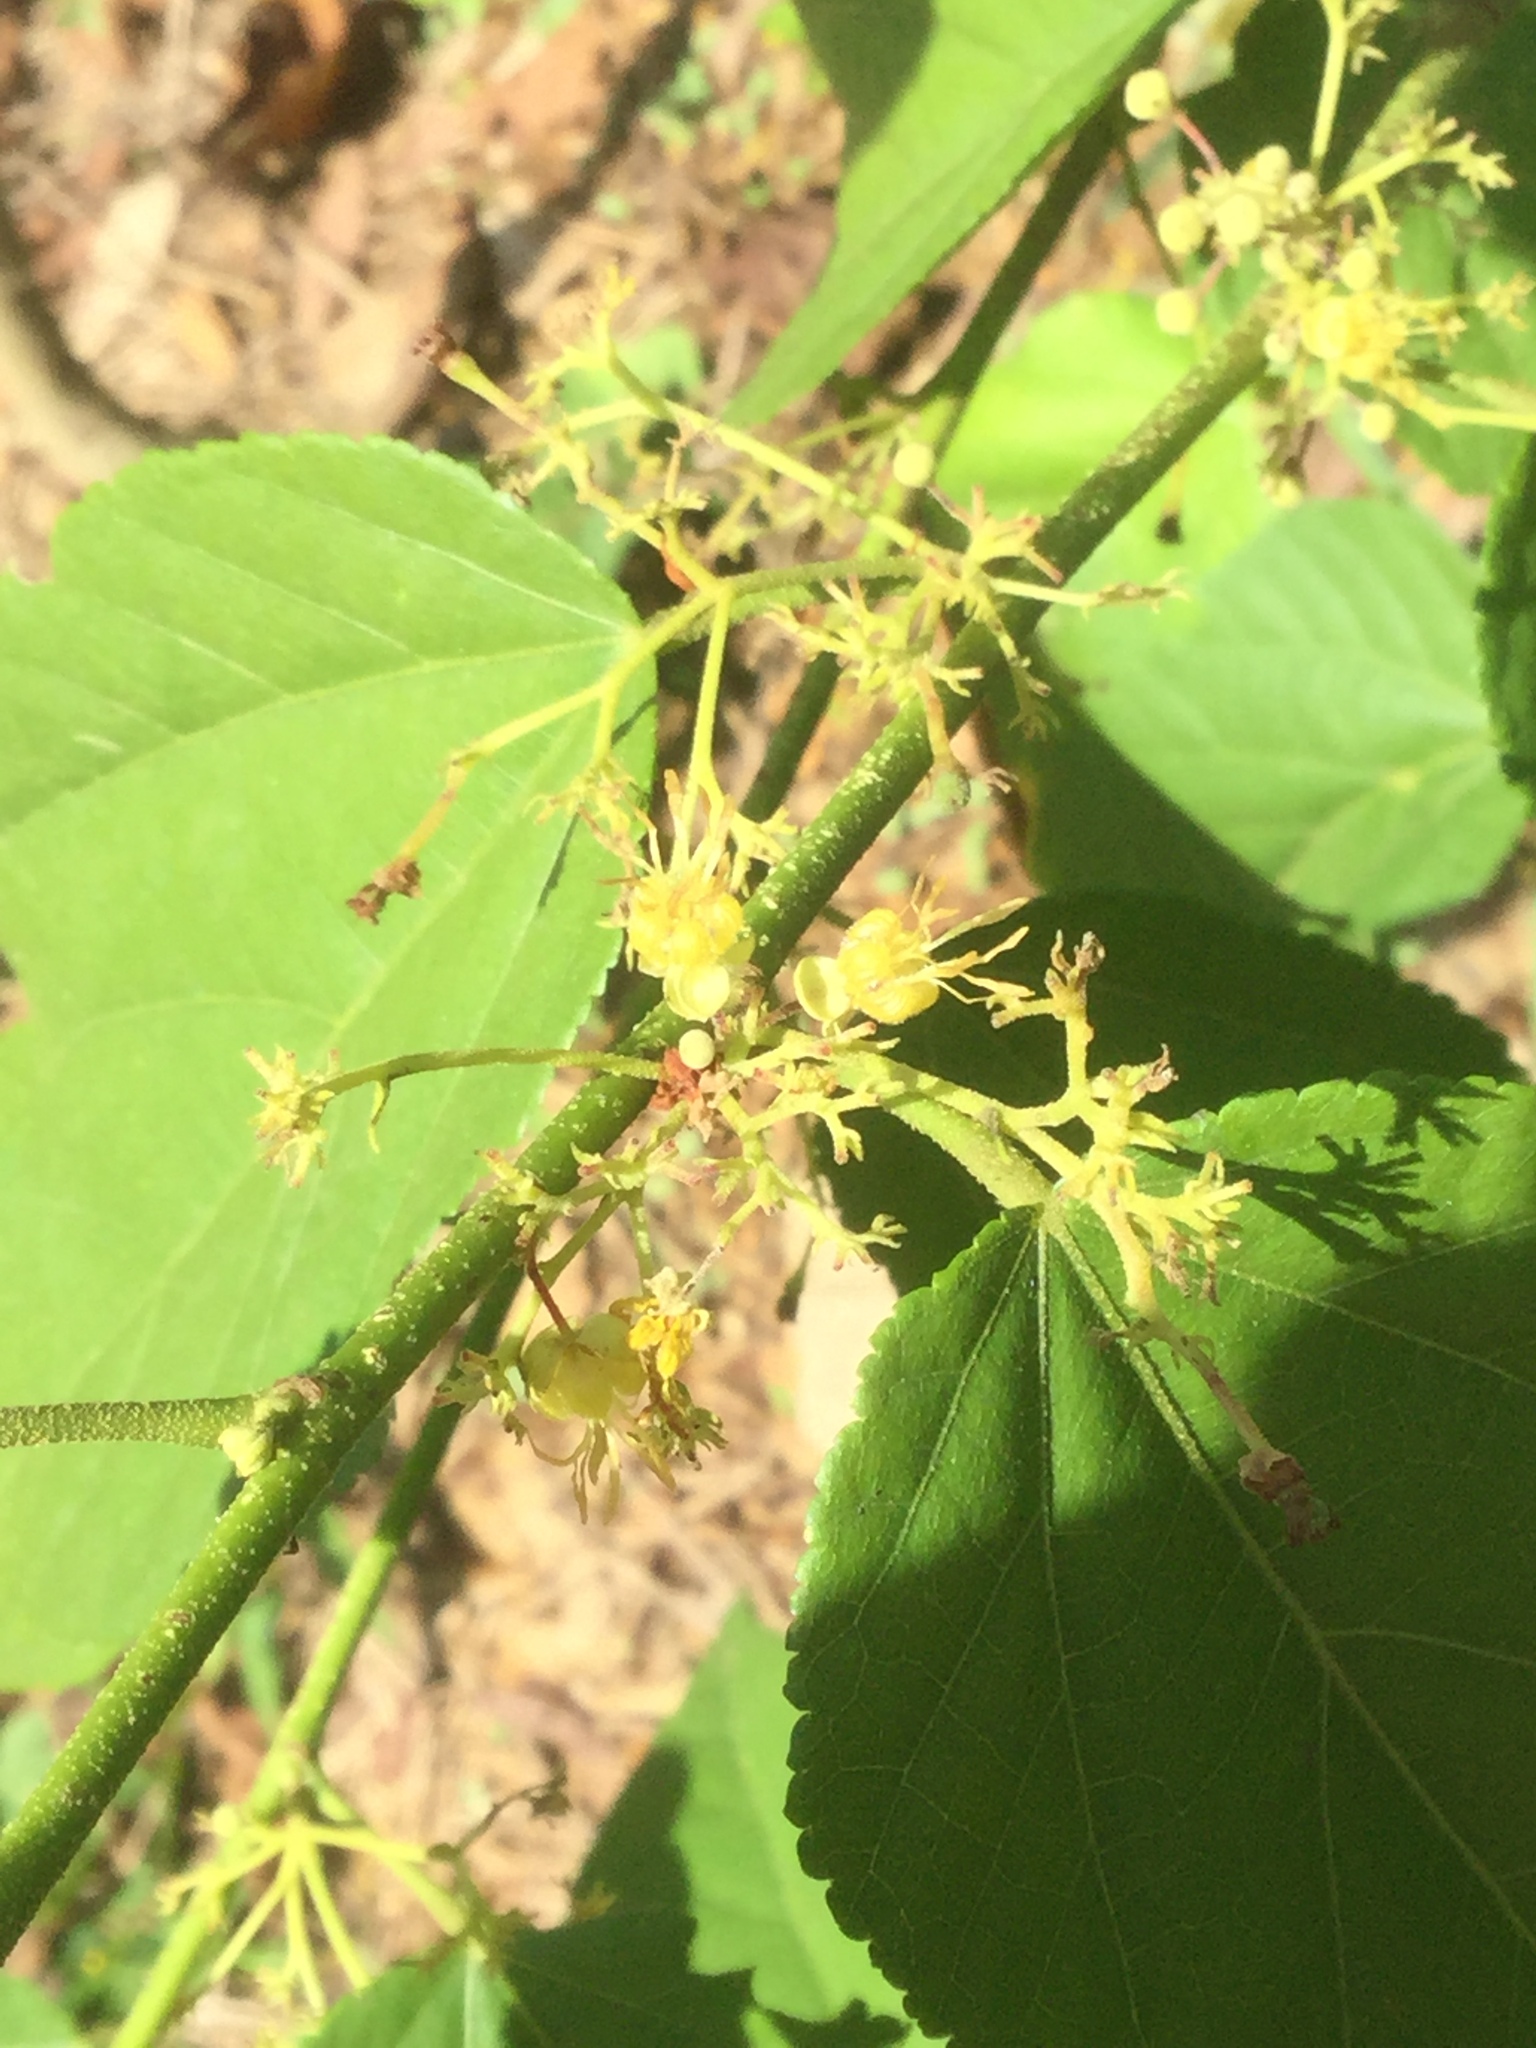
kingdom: Plantae
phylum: Tracheophyta
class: Magnoliopsida
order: Malvales
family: Malvaceae
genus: Guazuma
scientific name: Guazuma ulmifolia
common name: Bastard-cedar
